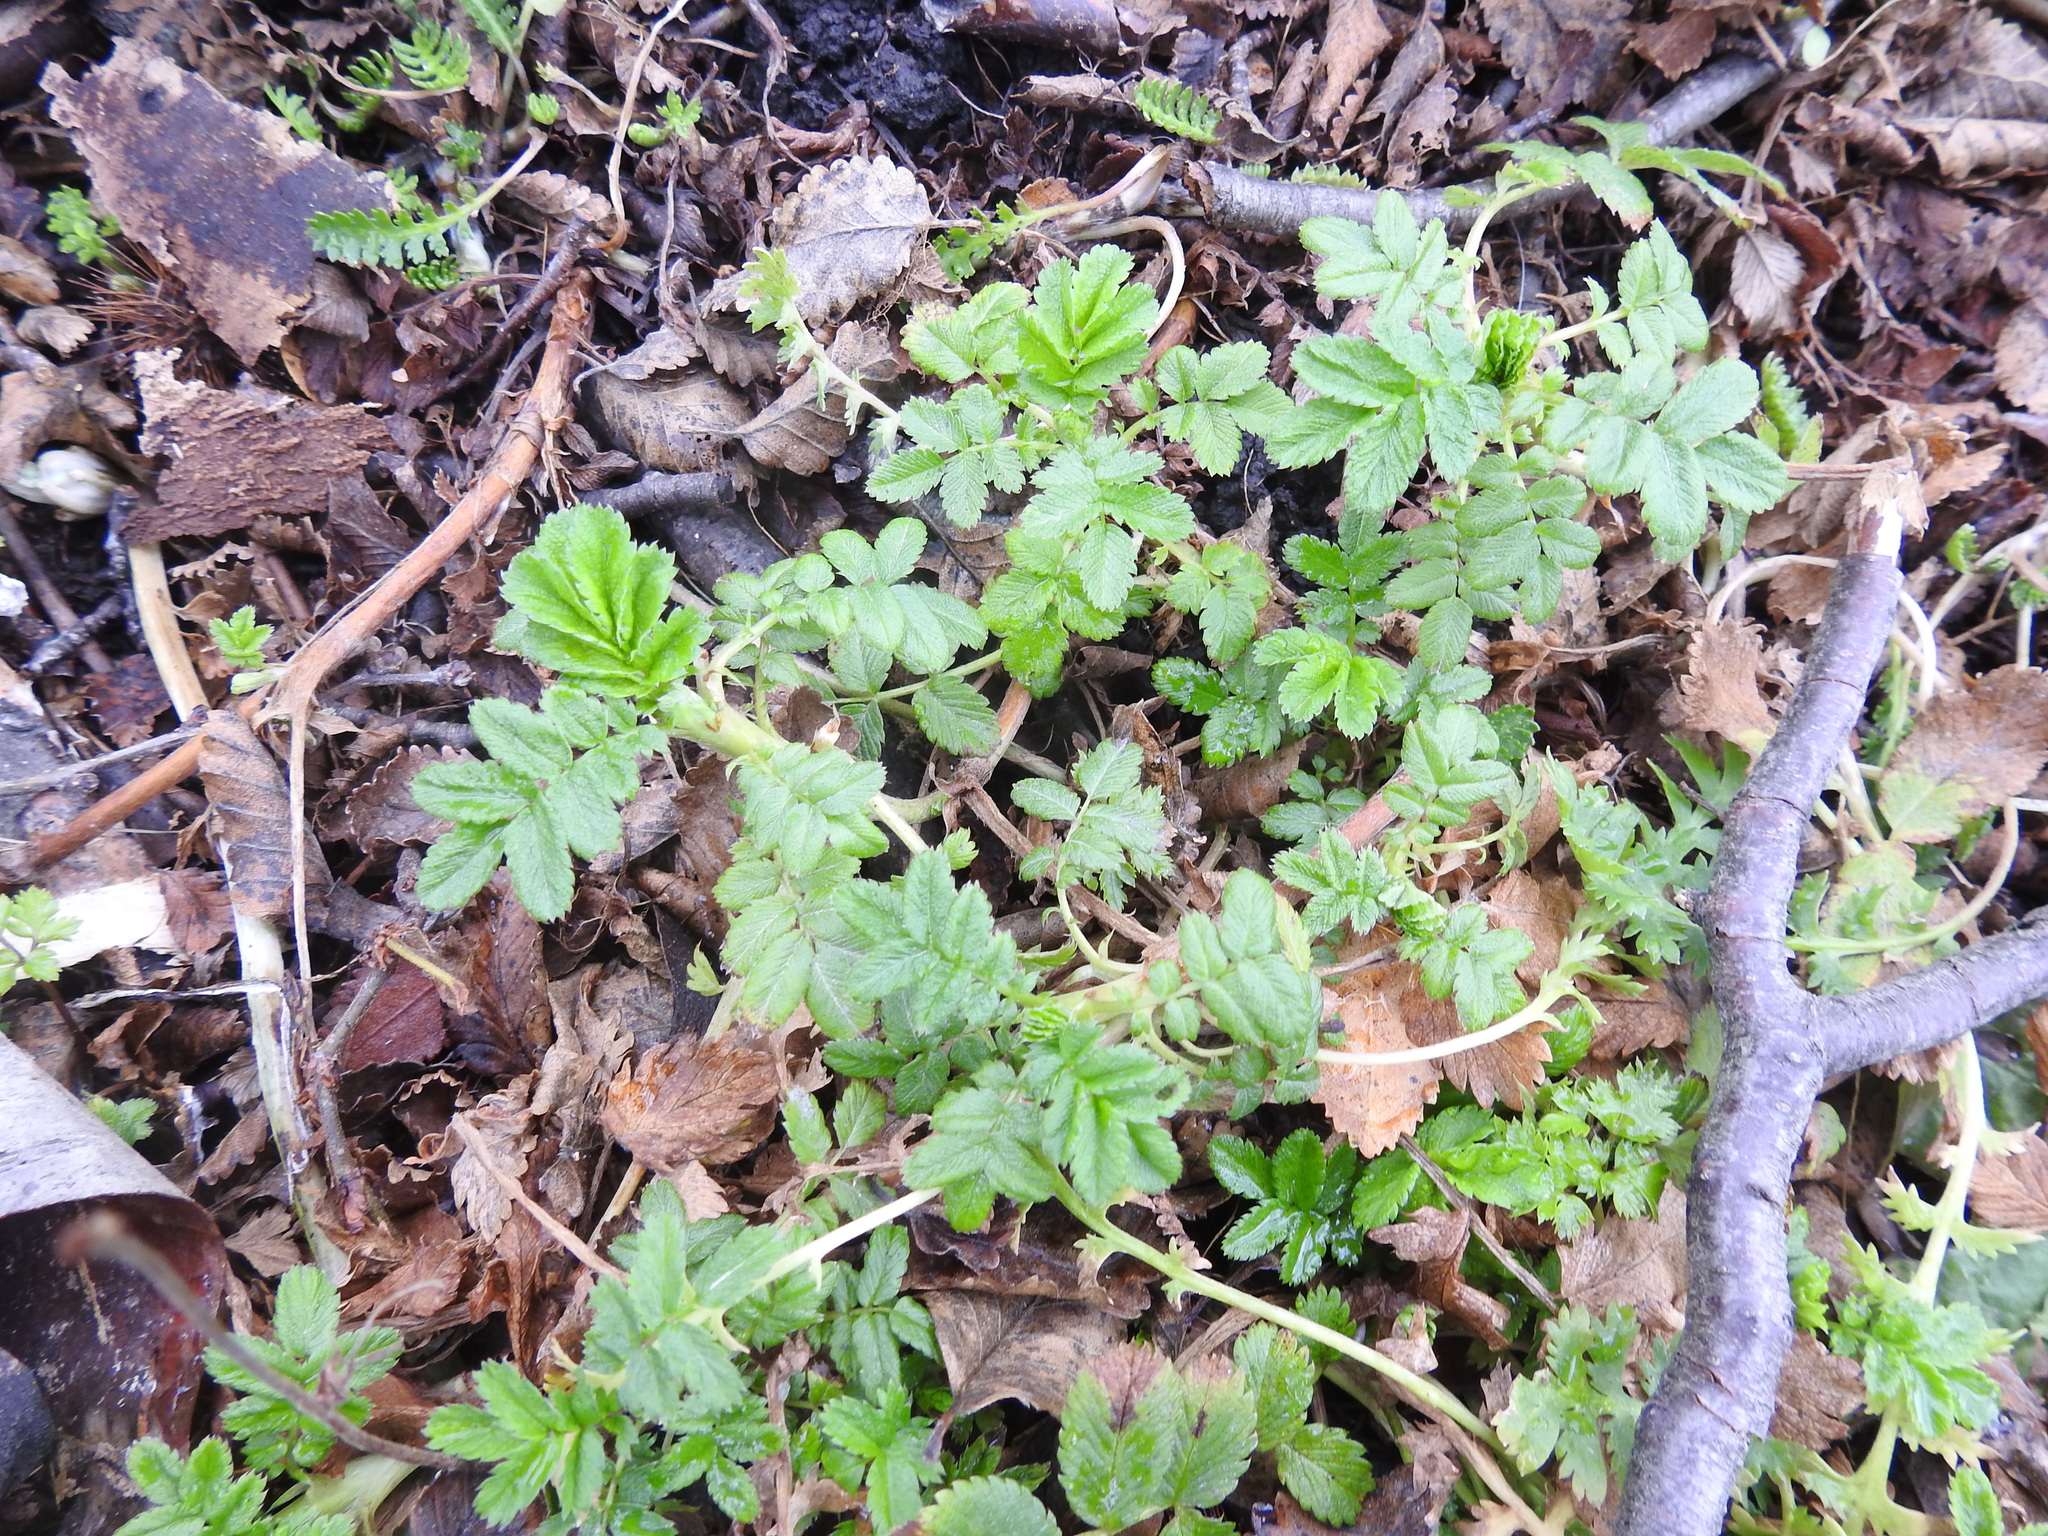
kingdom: Plantae
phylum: Tracheophyta
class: Magnoliopsida
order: Rosales
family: Rosaceae
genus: Acaena
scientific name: Acaena ovalifolia
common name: Two-spined acaena
